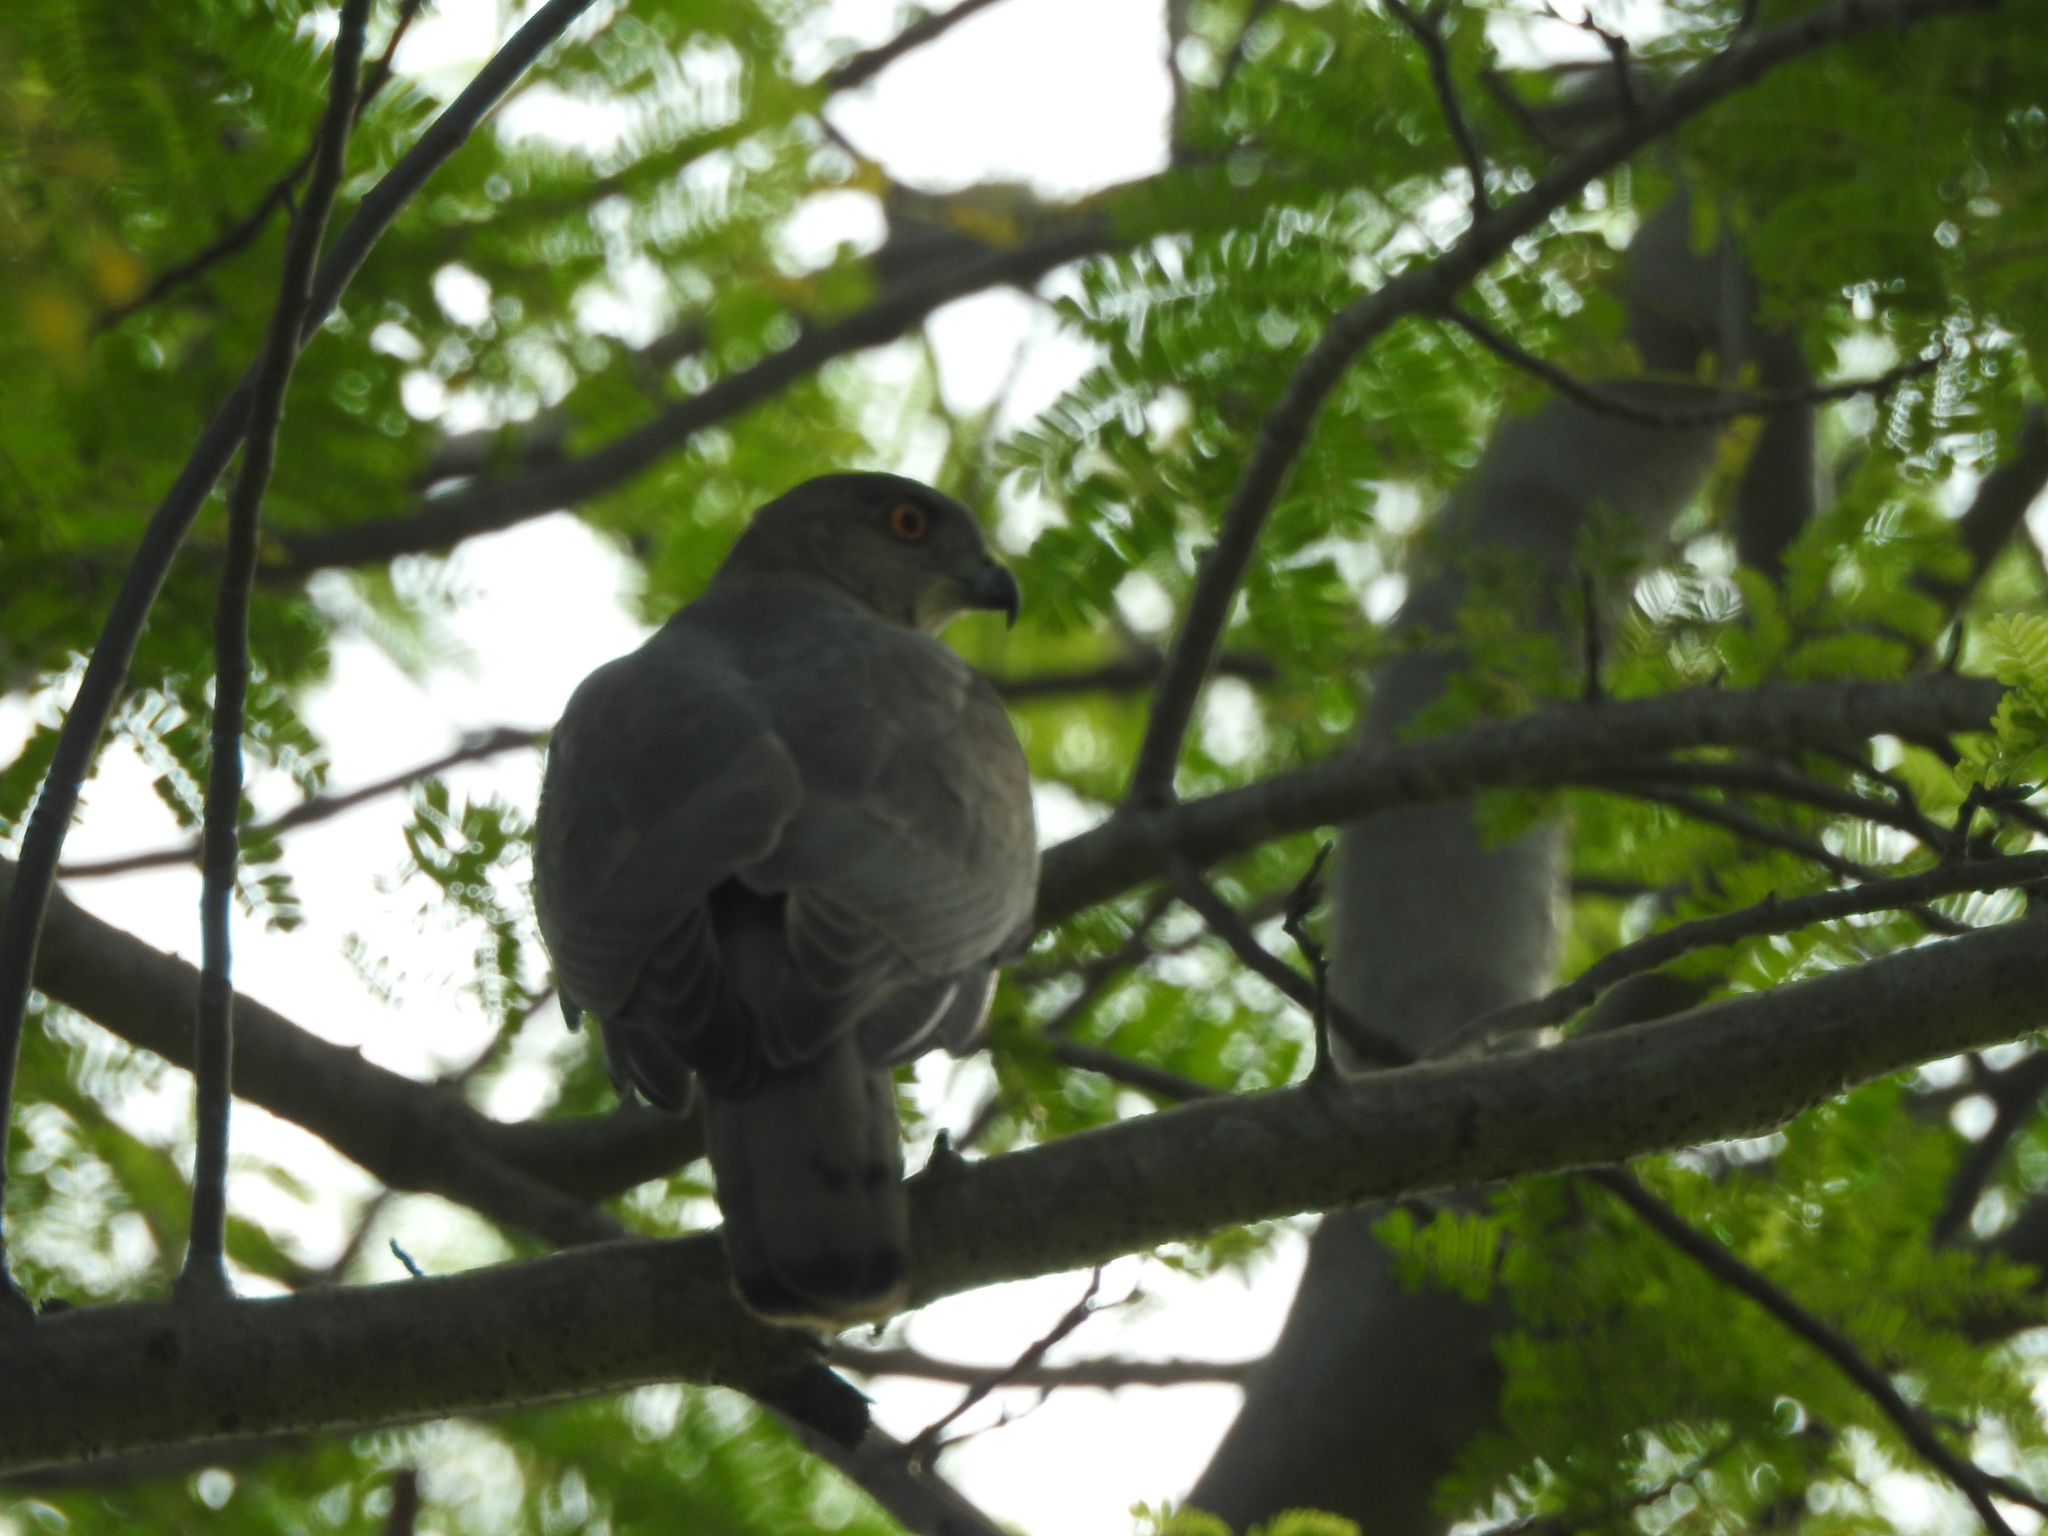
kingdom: Animalia
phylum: Chordata
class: Aves
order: Accipitriformes
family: Accipitridae
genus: Accipiter
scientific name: Accipiter badius
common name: Shikra
